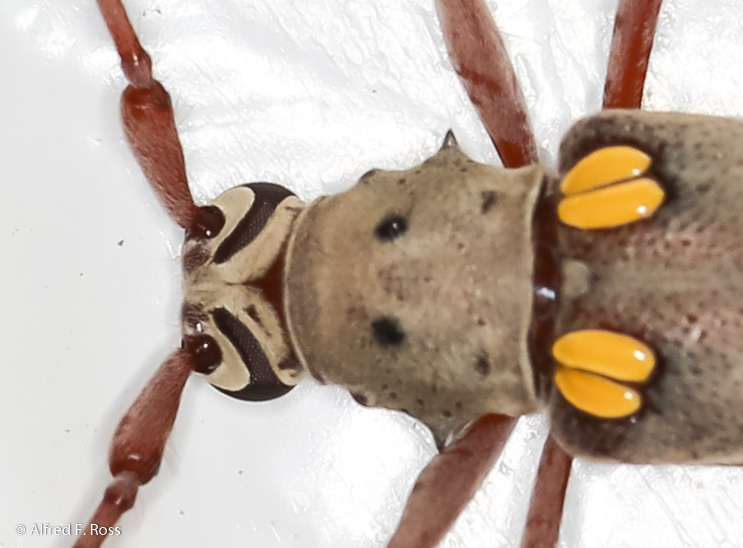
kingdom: Animalia
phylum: Arthropoda
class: Insecta
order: Coleoptera
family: Cerambycidae
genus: Eburia
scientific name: Eburia jamaicae
